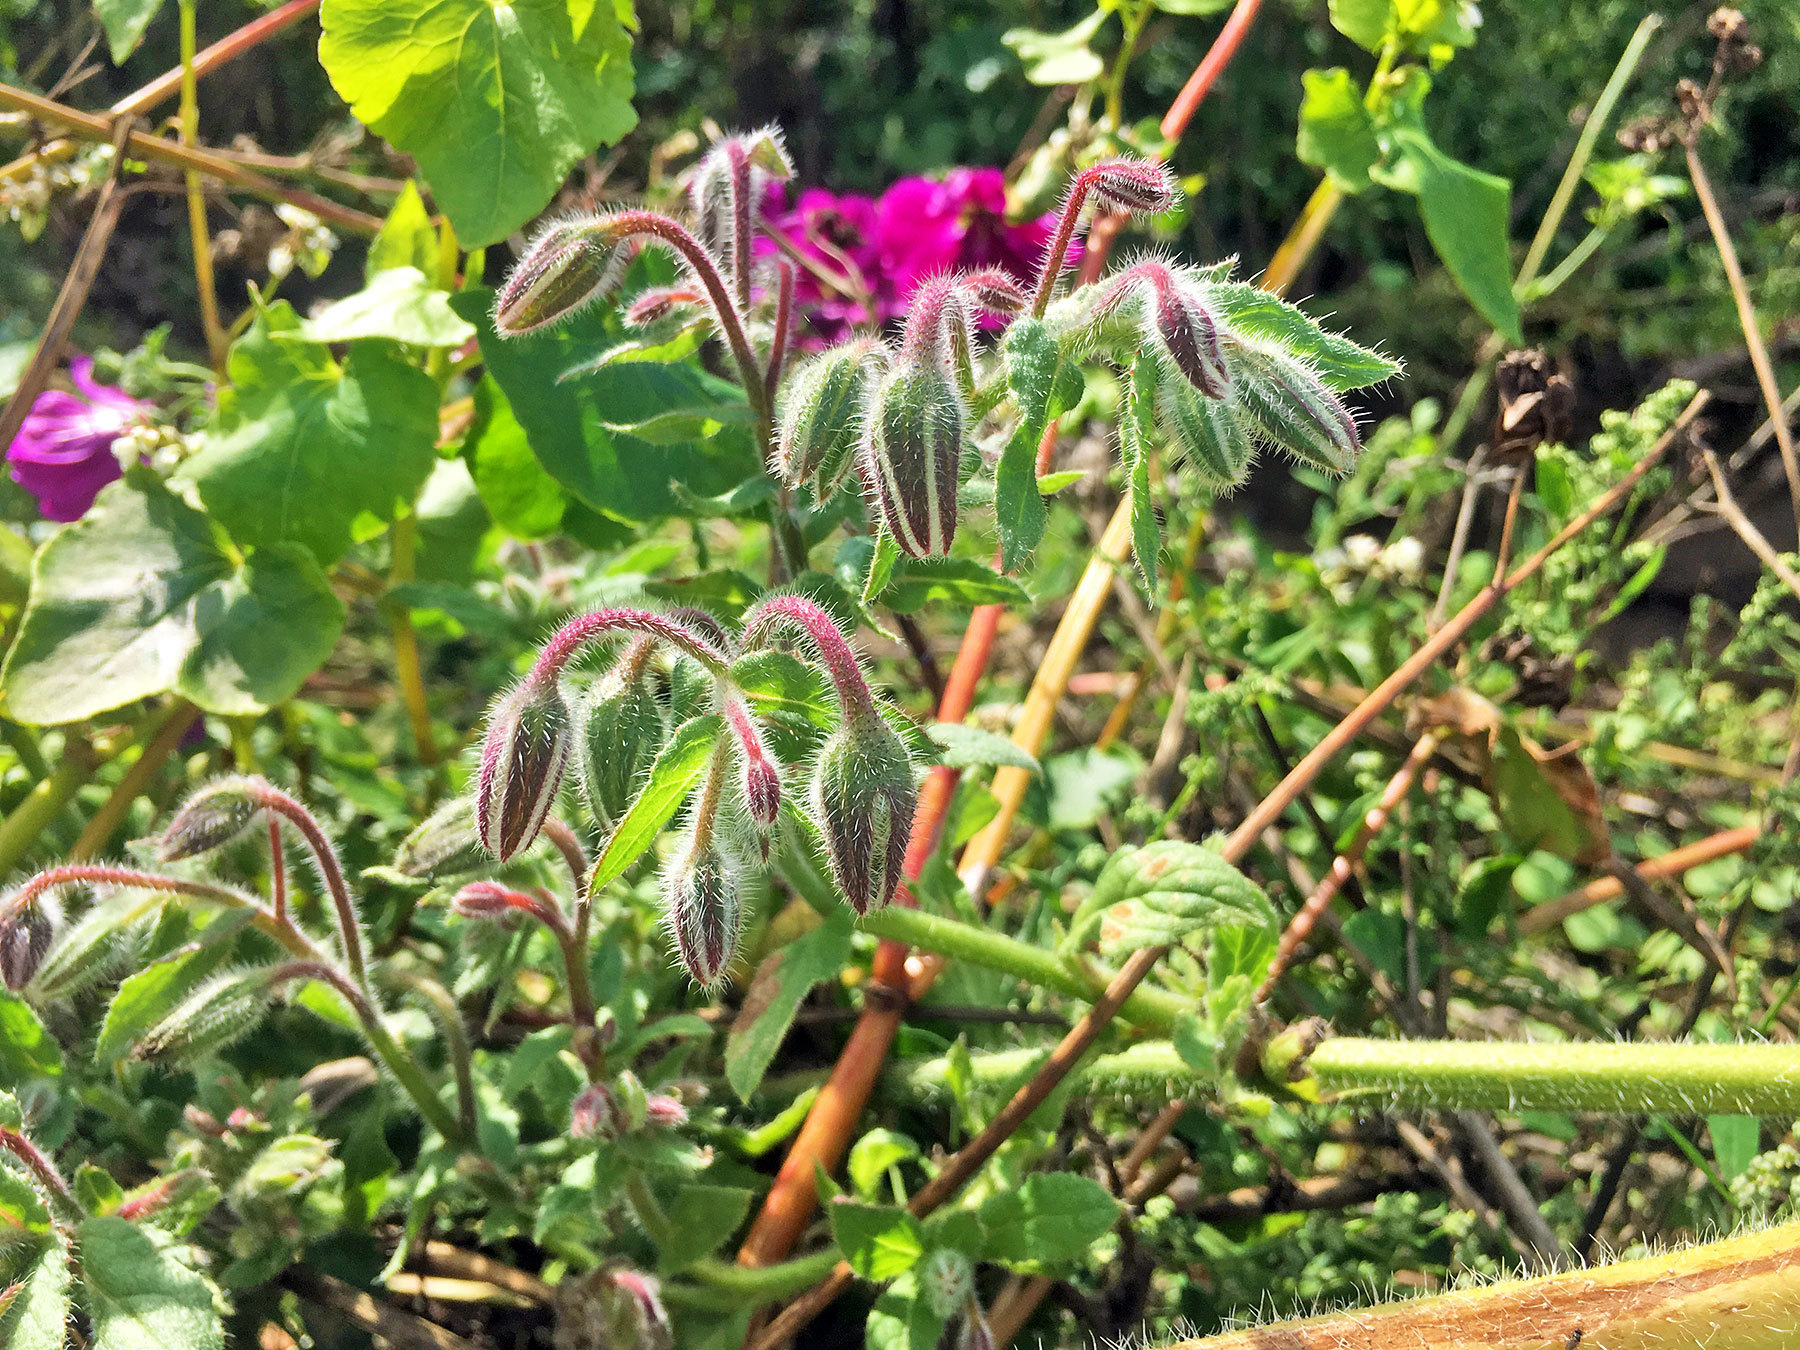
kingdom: Plantae
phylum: Tracheophyta
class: Magnoliopsida
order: Boraginales
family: Boraginaceae
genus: Borago
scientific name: Borago officinalis
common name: Borage
